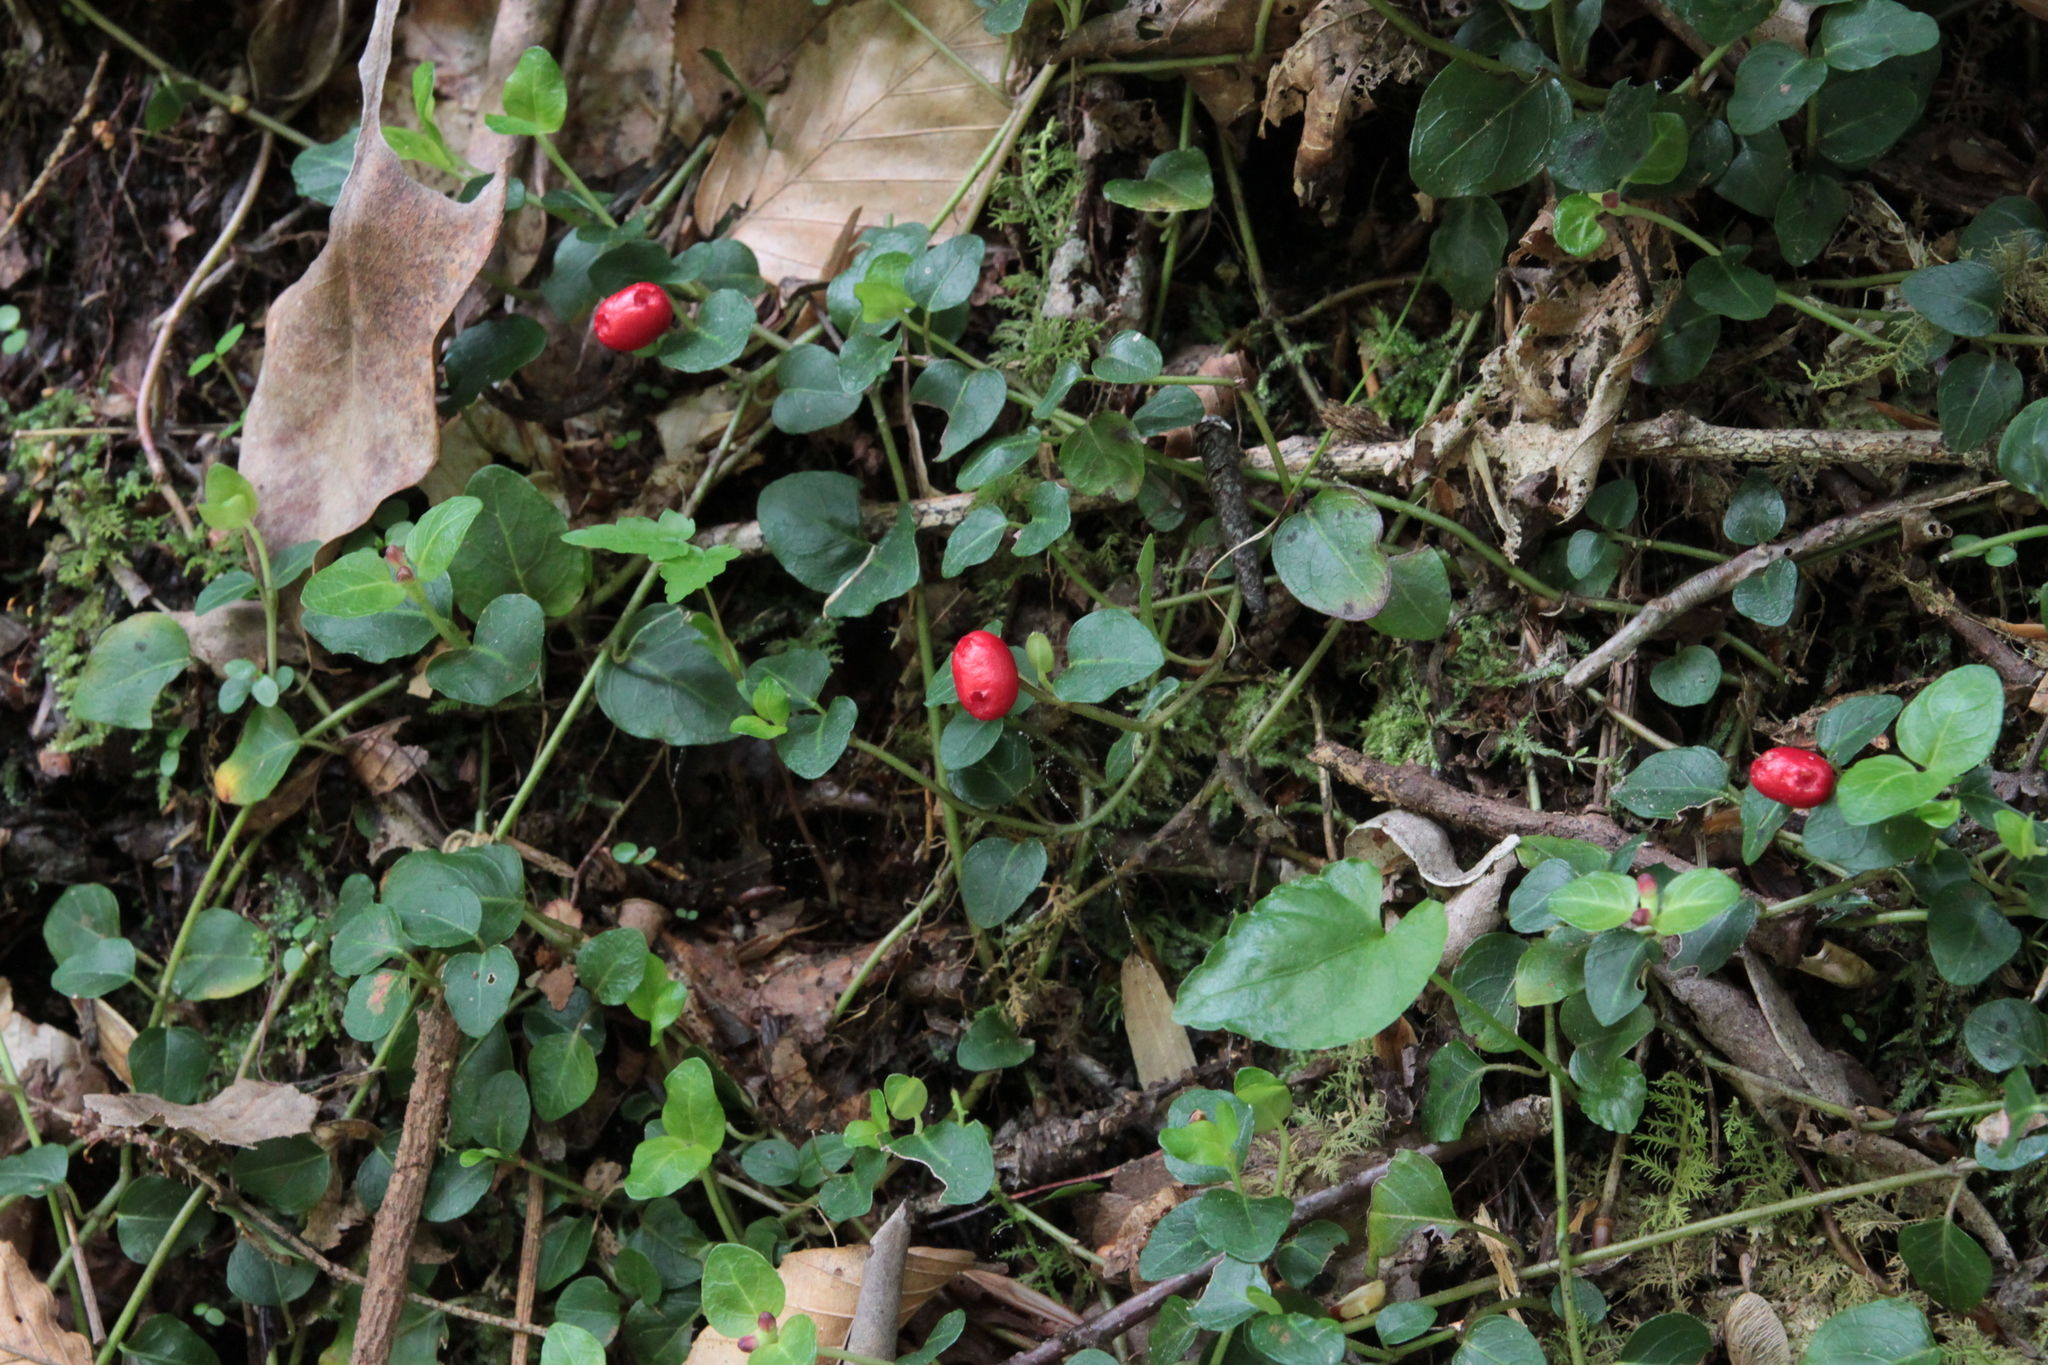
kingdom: Plantae
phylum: Tracheophyta
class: Magnoliopsida
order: Gentianales
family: Rubiaceae
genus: Mitchella
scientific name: Mitchella repens
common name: Partridge-berry
